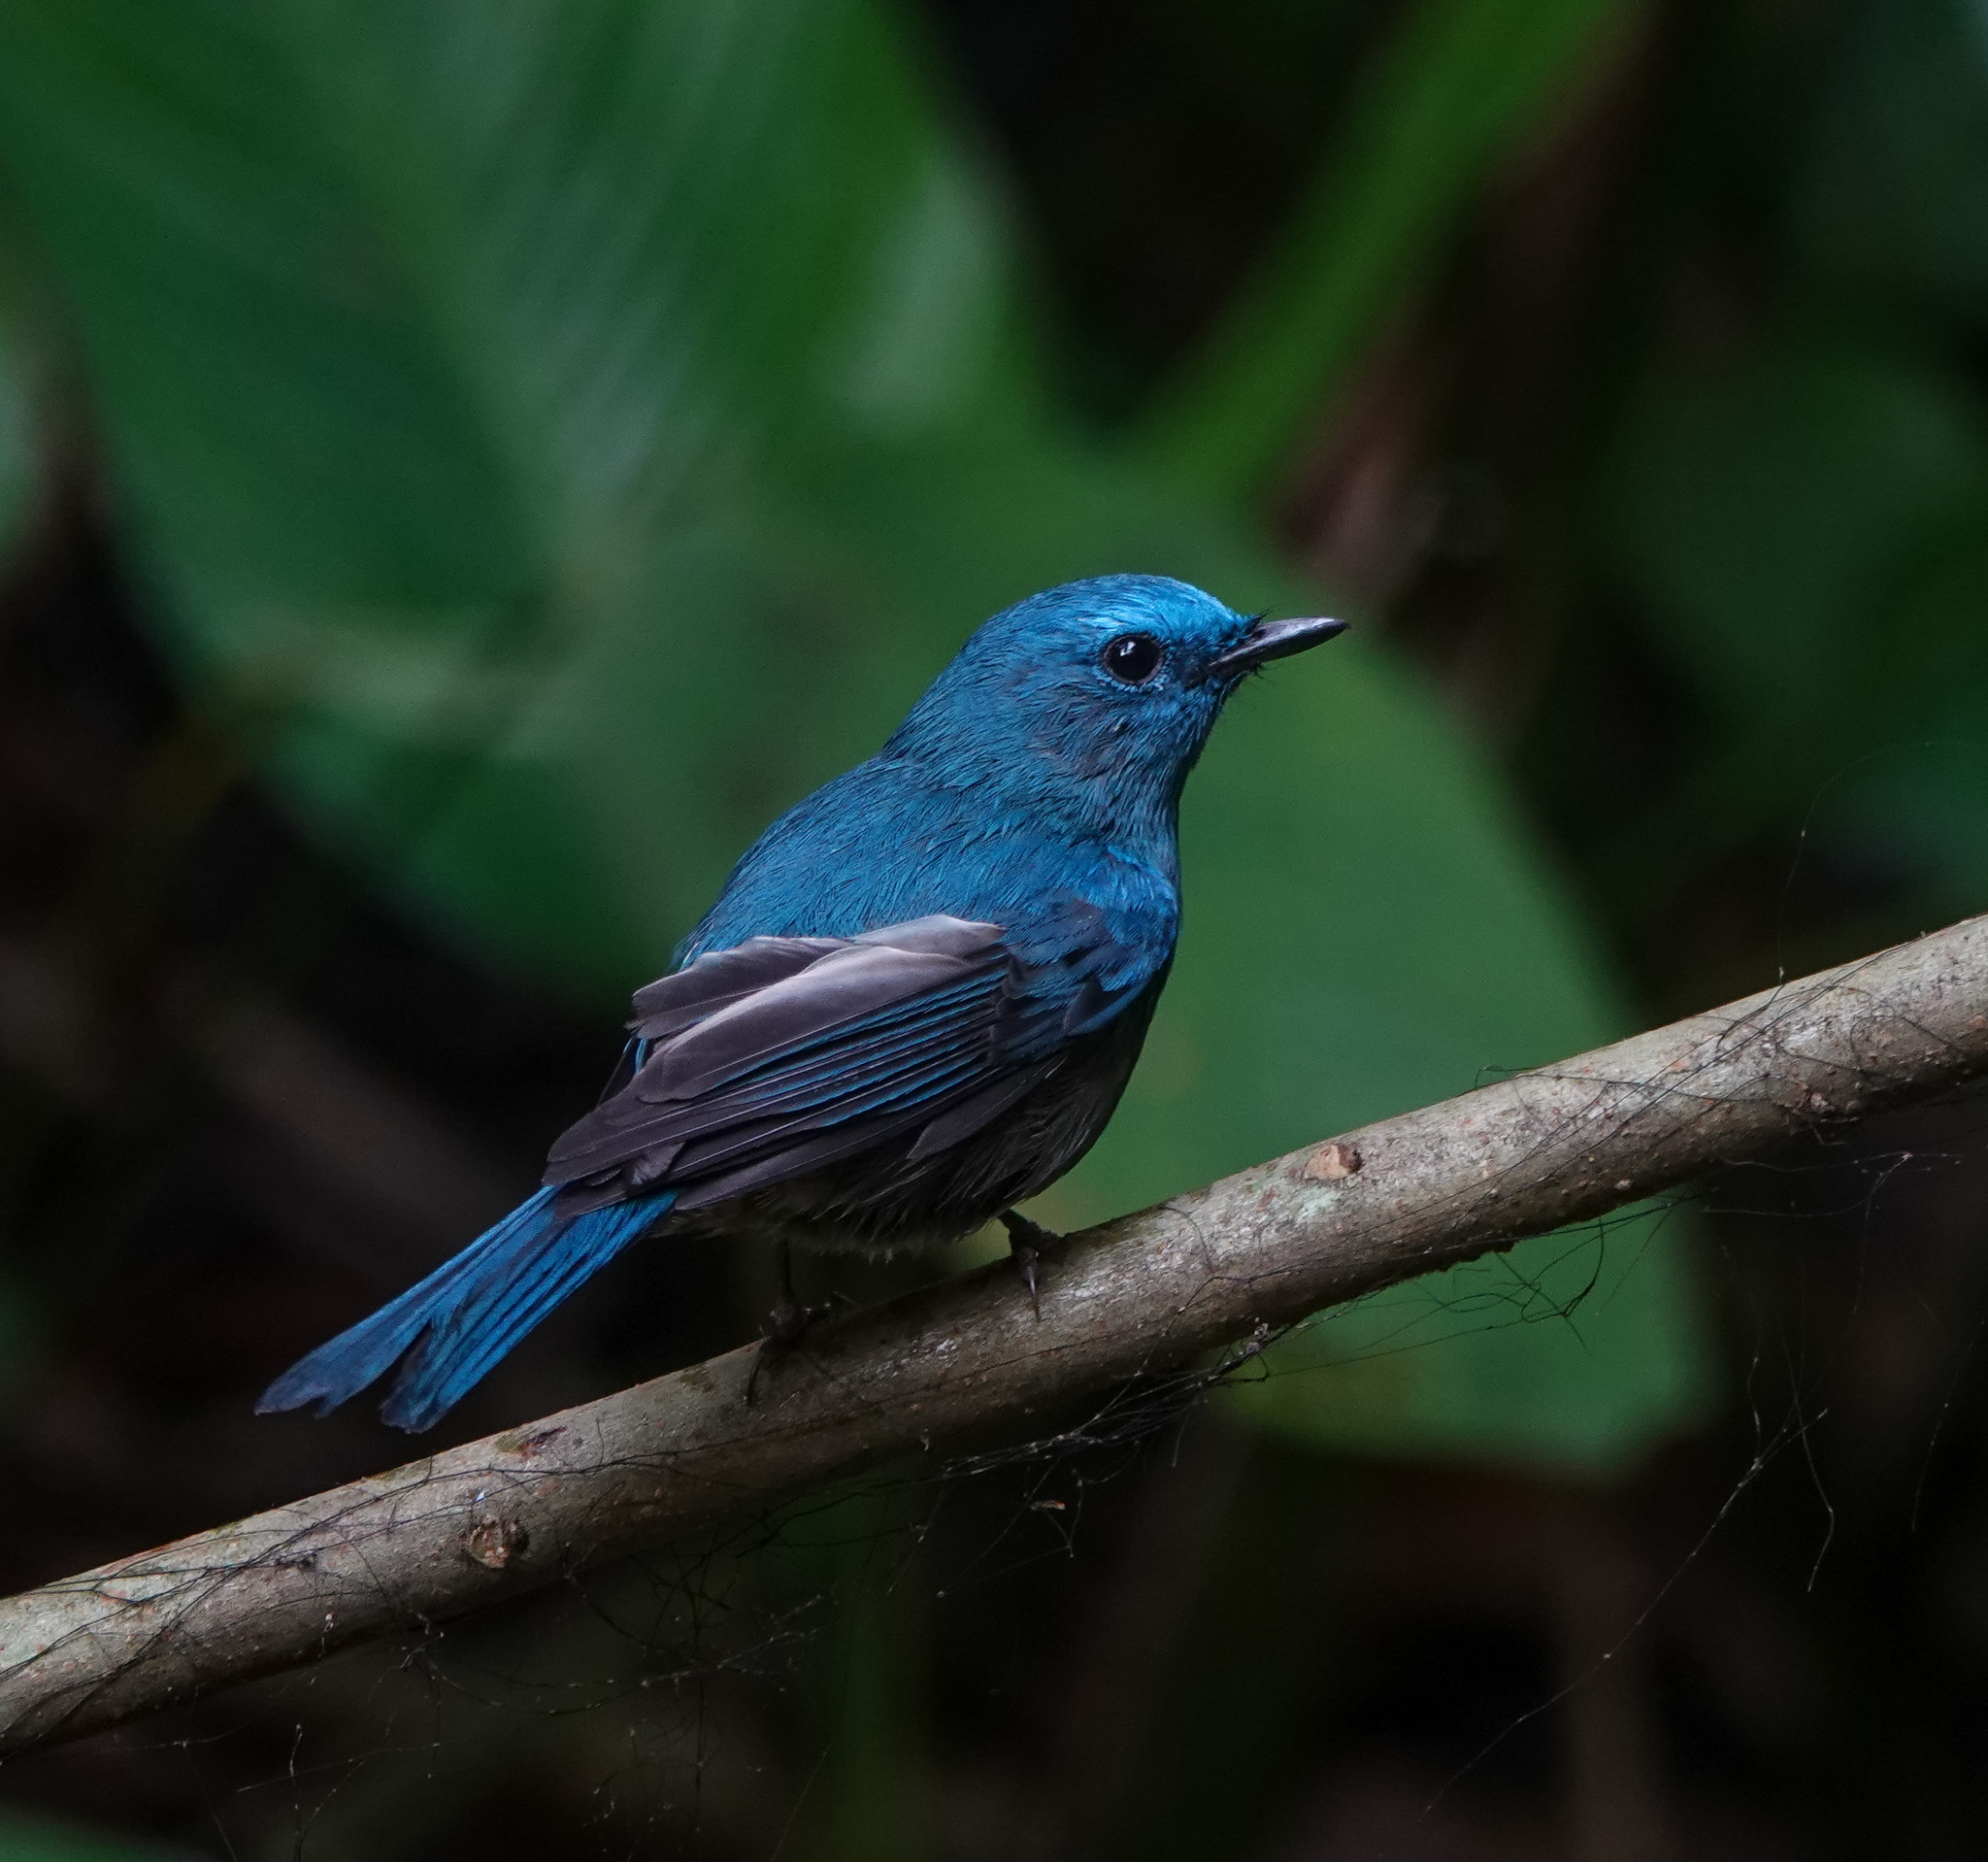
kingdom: Animalia
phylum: Chordata
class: Aves
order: Passeriformes
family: Muscicapidae
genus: Cyornis
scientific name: Cyornis unicolor
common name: Pale blue flycatcher
